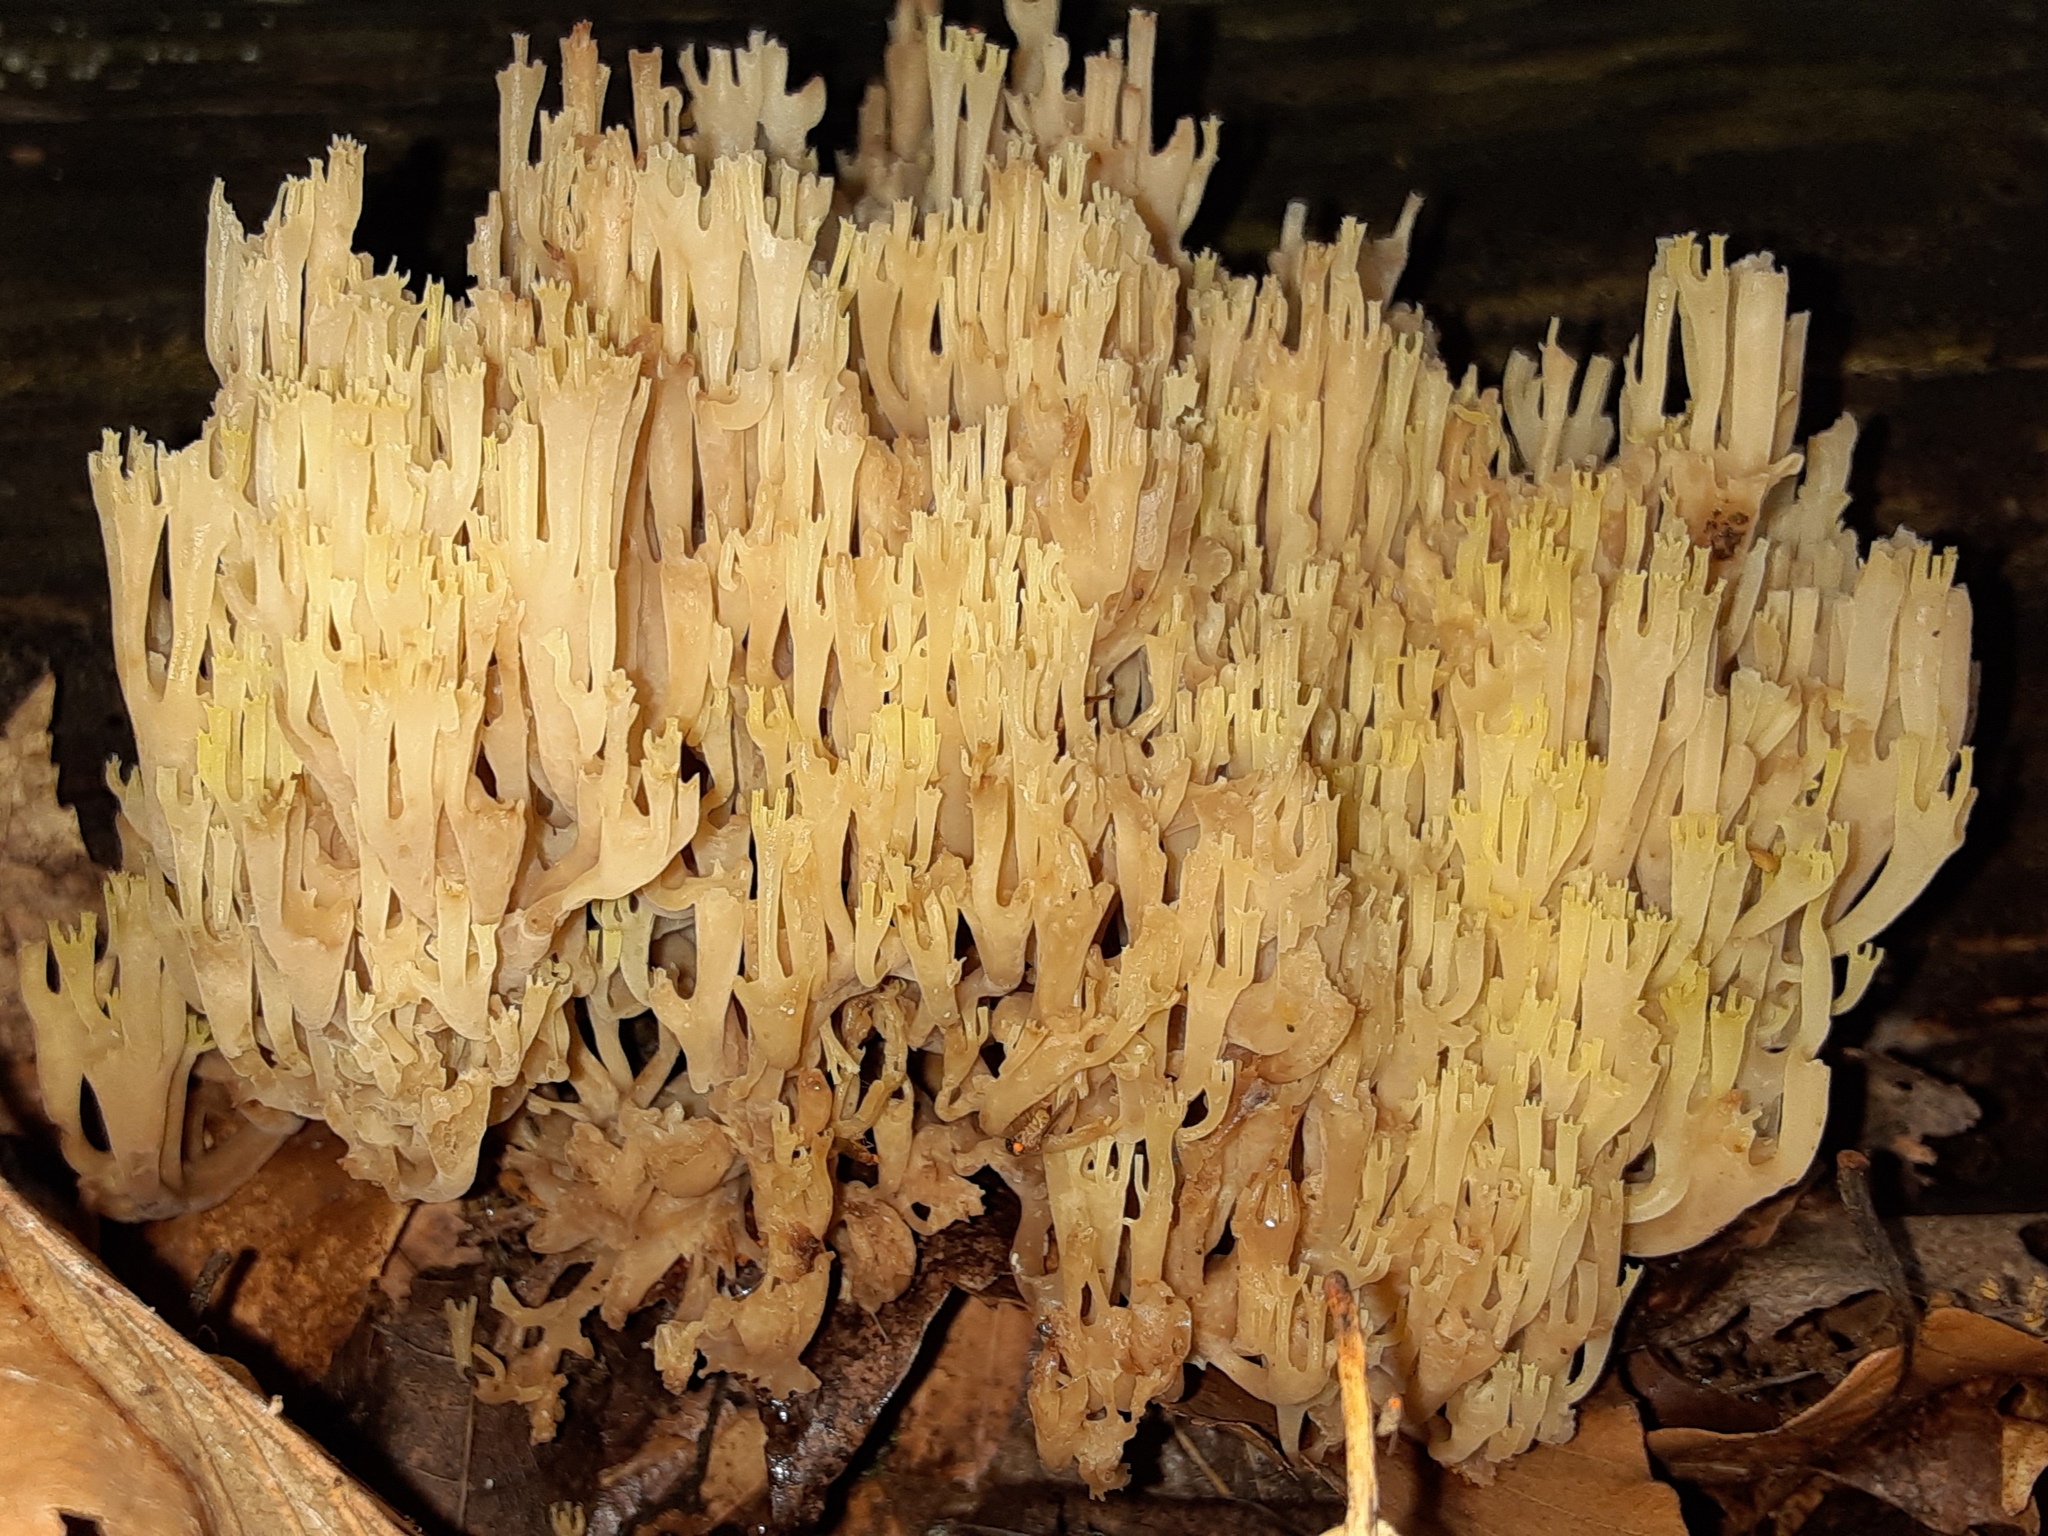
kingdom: Fungi
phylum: Basidiomycota
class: Agaricomycetes
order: Russulales
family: Auriscalpiaceae
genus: Artomyces
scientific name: Artomyces pyxidatus
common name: Crown-tipped coral fungus
